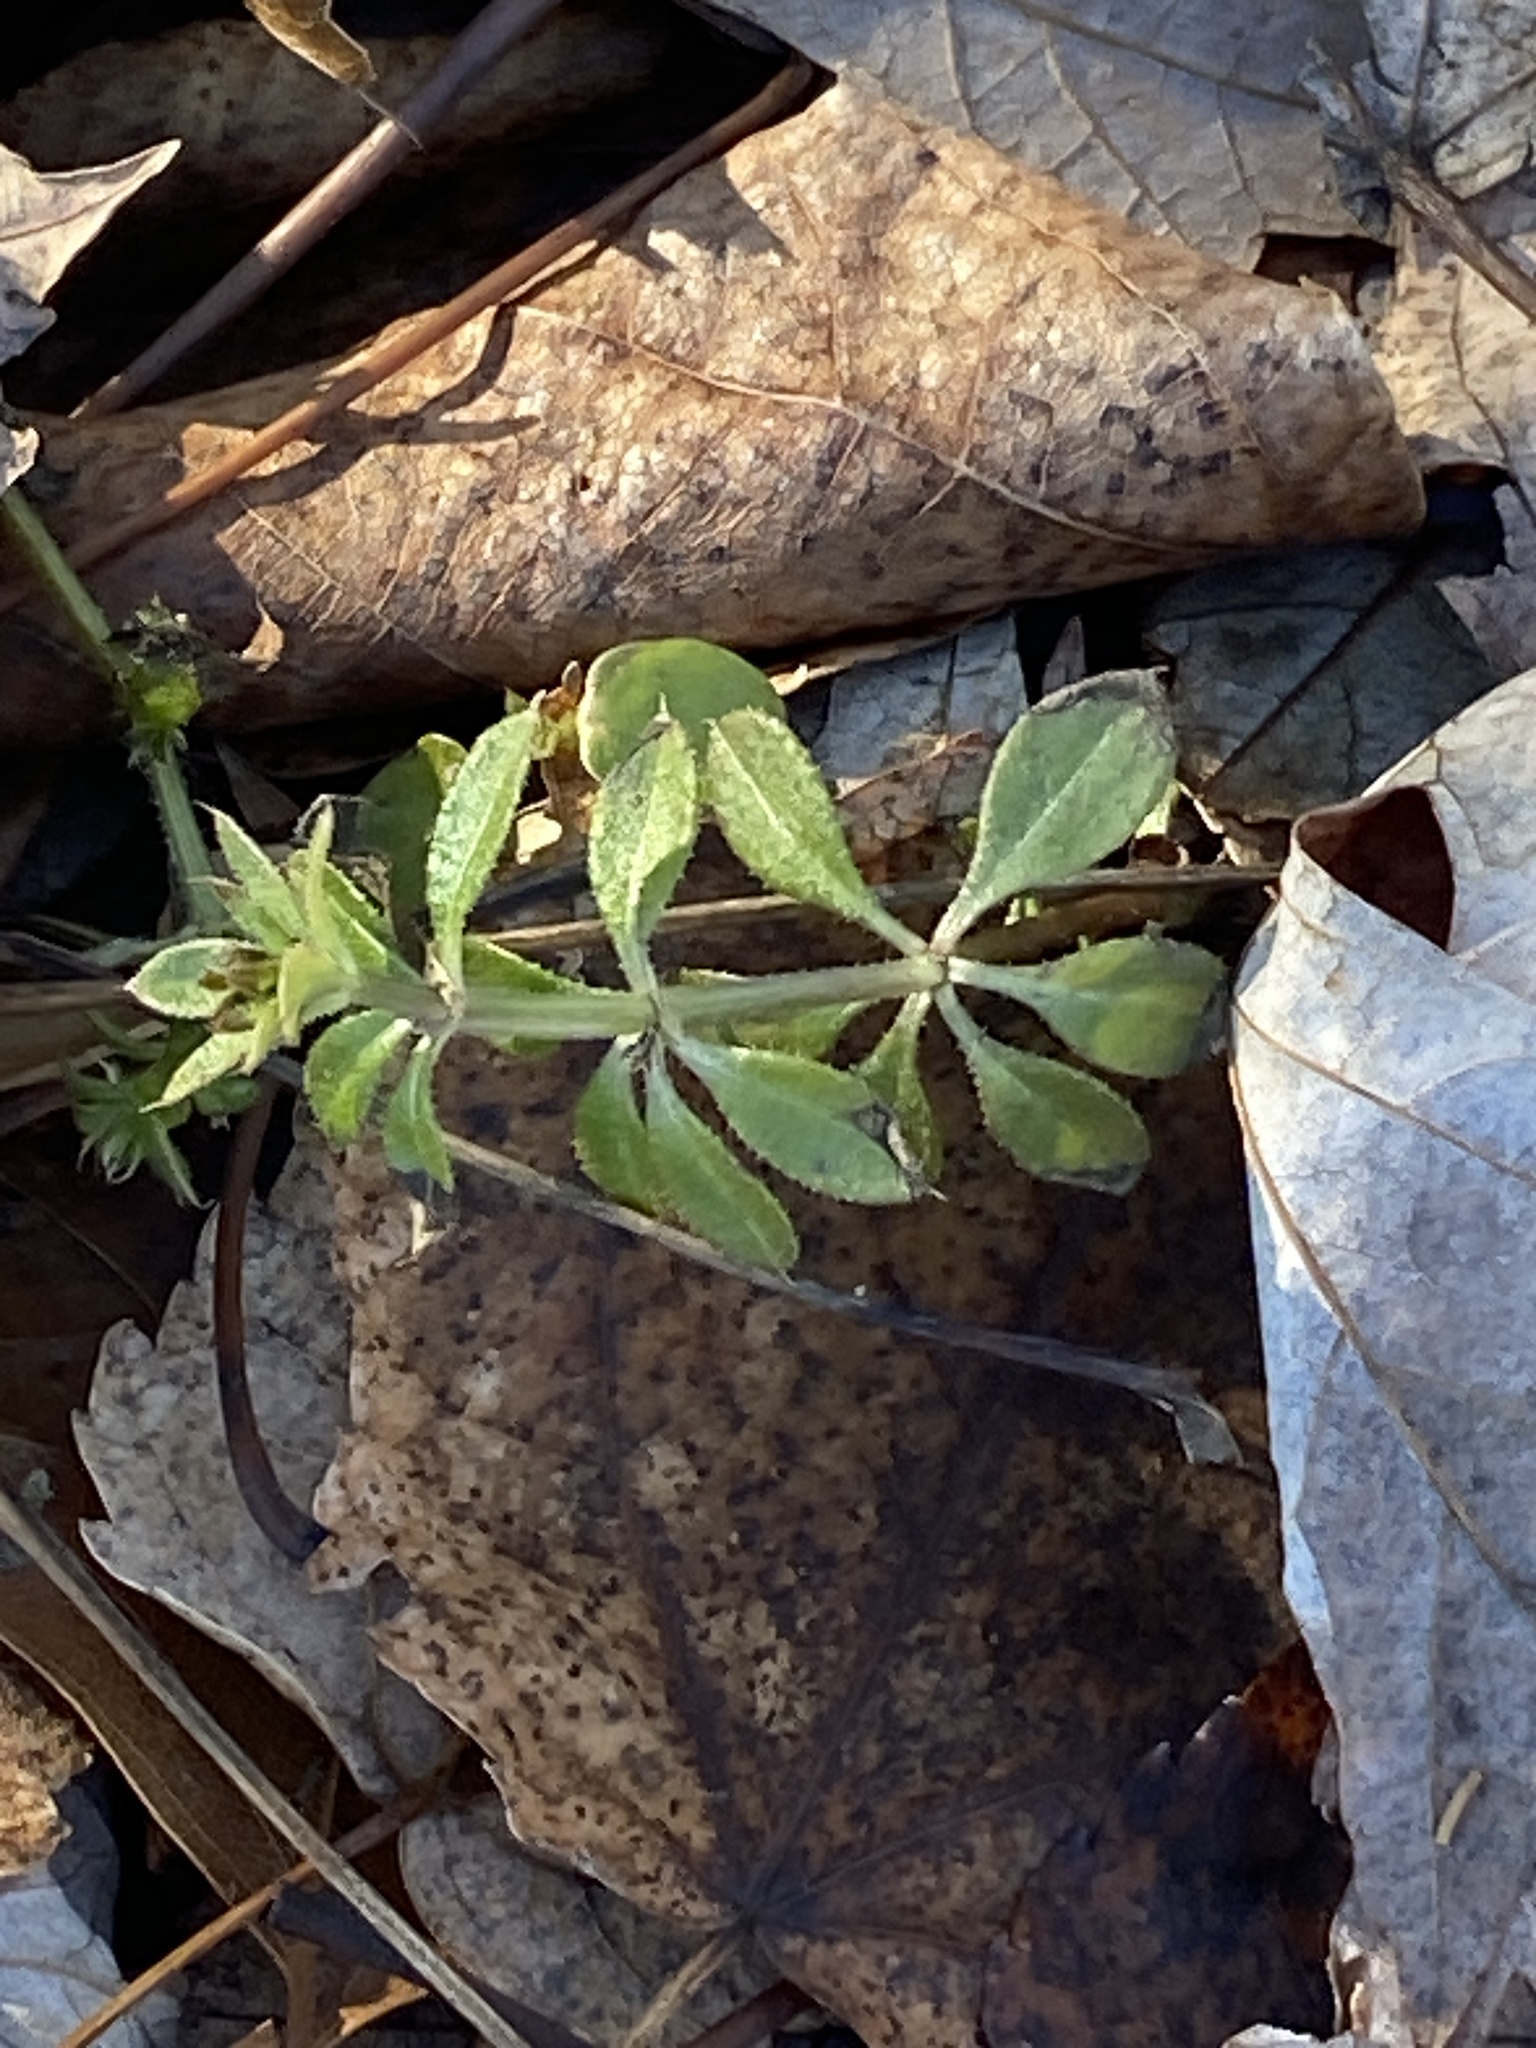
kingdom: Plantae
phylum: Tracheophyta
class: Magnoliopsida
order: Gentianales
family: Rubiaceae
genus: Galium
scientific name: Galium aparine
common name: Cleavers
